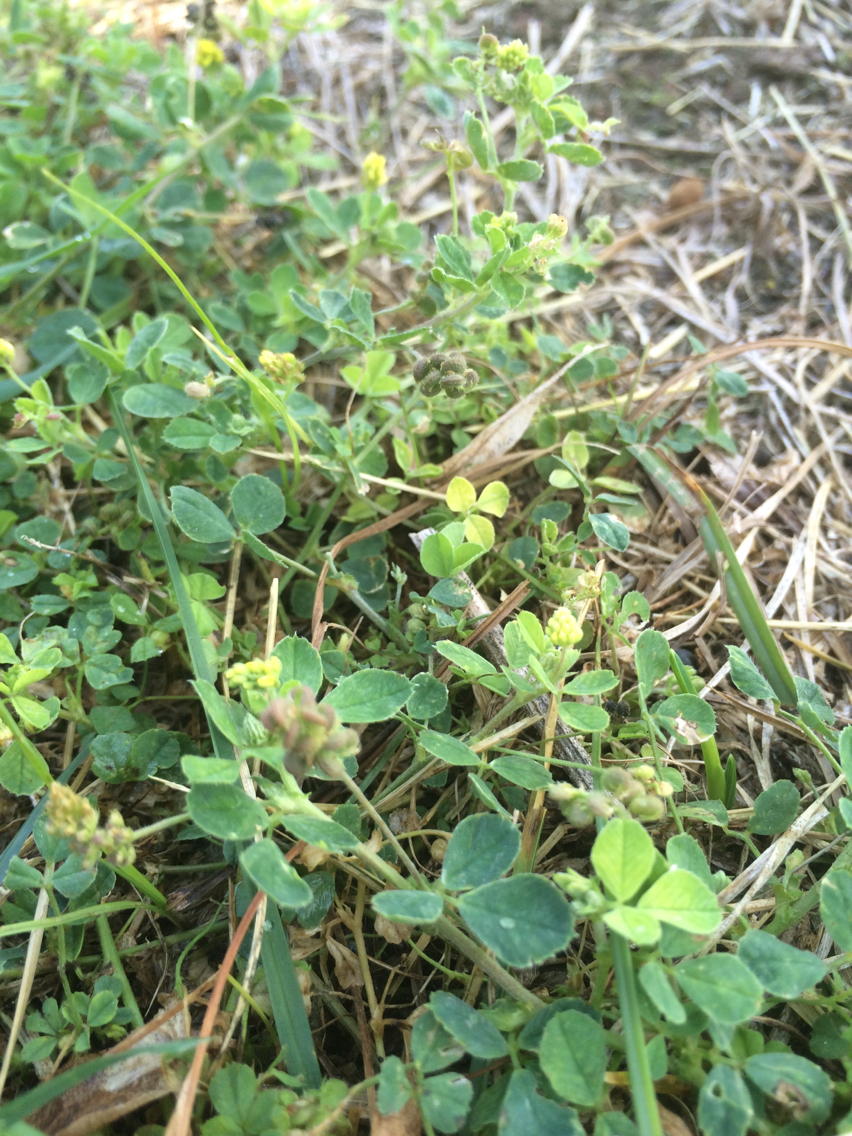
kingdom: Plantae
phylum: Tracheophyta
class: Magnoliopsida
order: Fabales
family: Fabaceae
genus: Medicago
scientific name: Medicago lupulina
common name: Black medick
